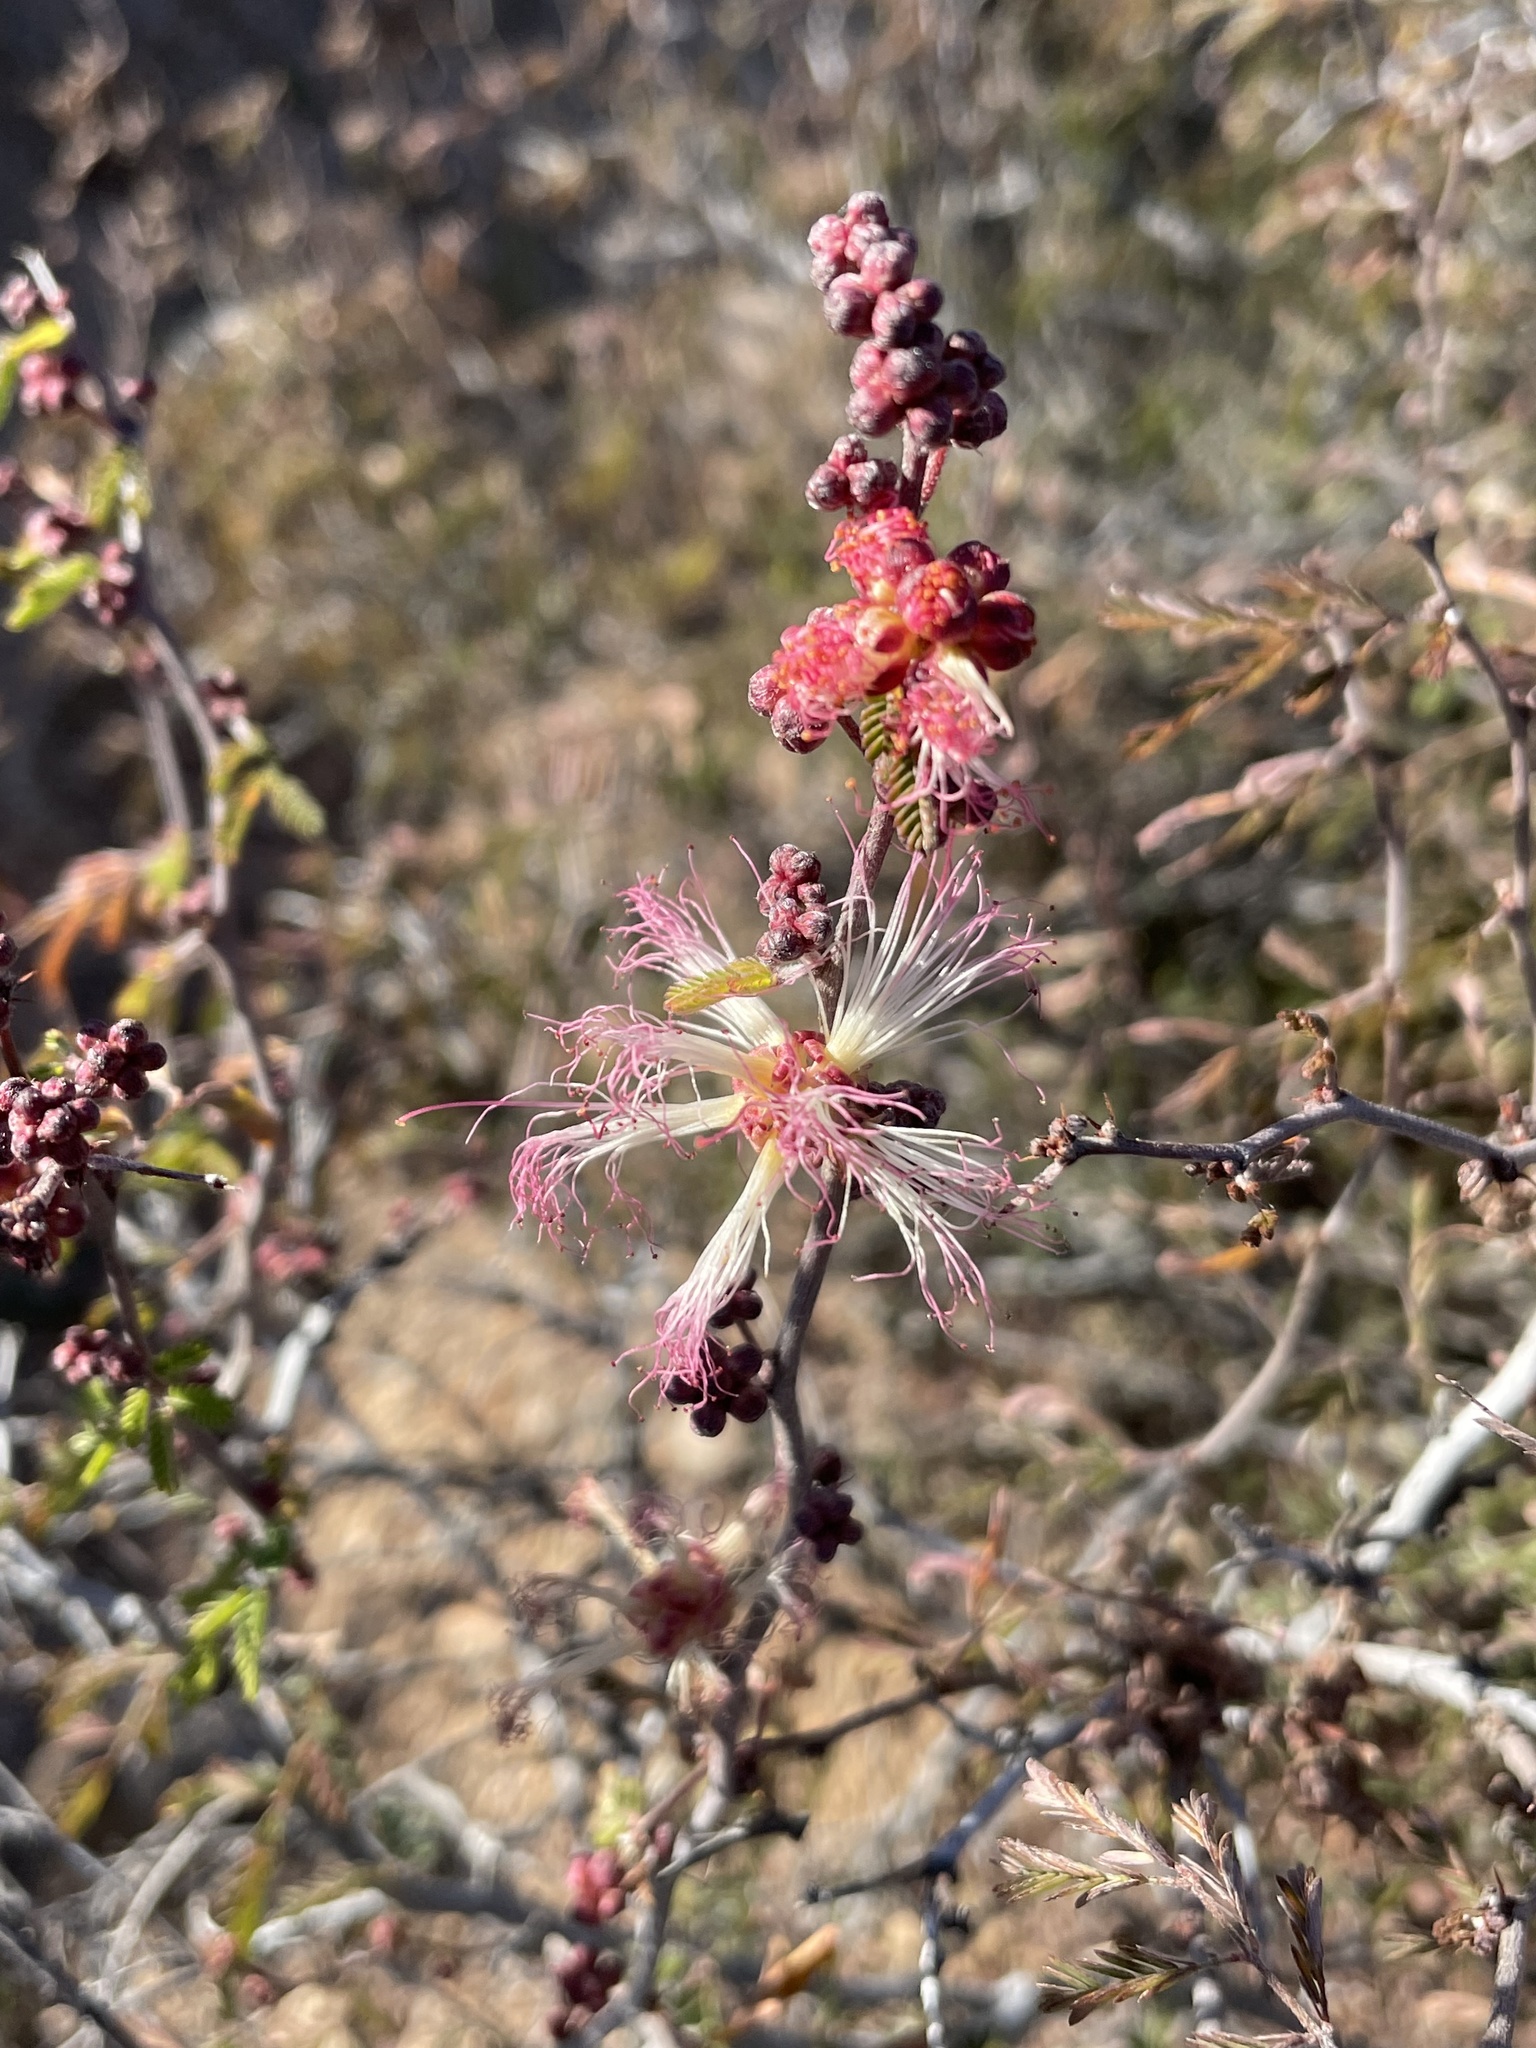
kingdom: Plantae
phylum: Tracheophyta
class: Magnoliopsida
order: Fabales
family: Fabaceae
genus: Calliandra
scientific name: Calliandra eriophylla
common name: Fairy-duster
